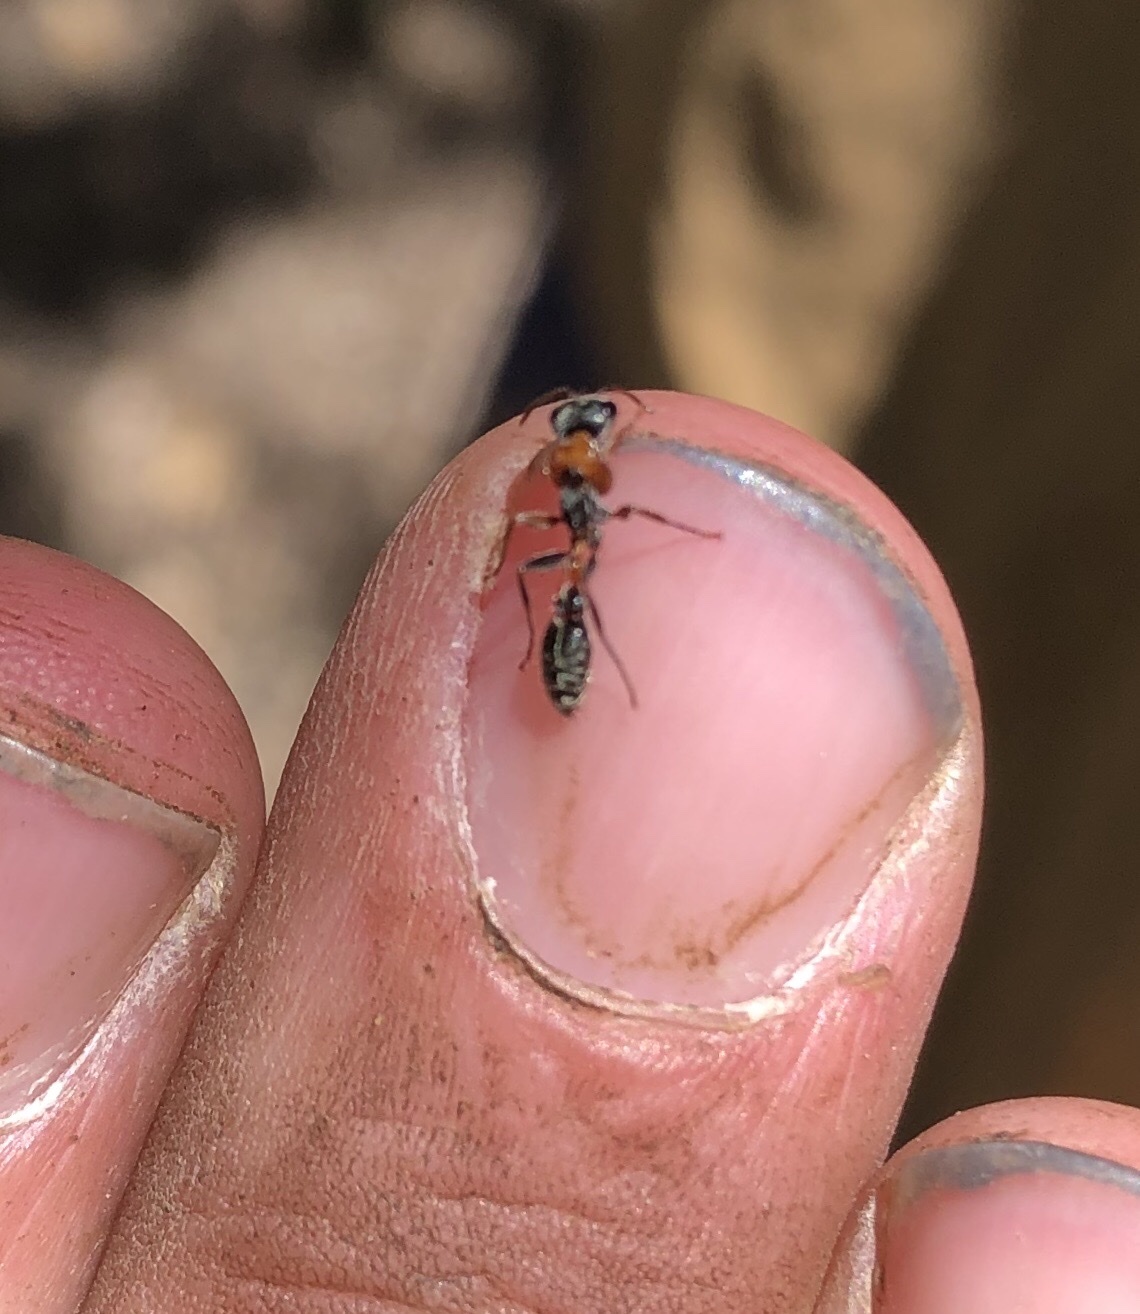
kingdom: Animalia
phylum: Arthropoda
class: Insecta
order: Hymenoptera
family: Formicidae
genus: Pseudomyrmex
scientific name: Pseudomyrmex gracilis
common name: Graceful twig ant
